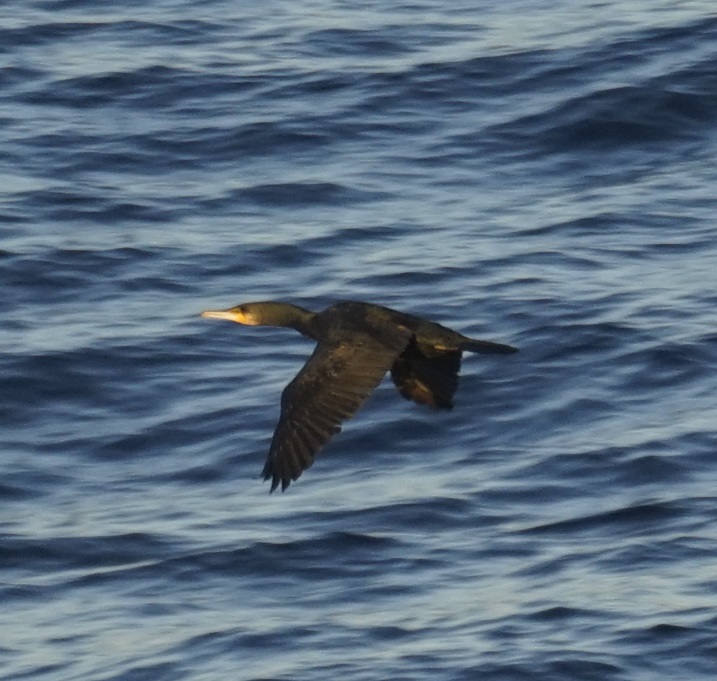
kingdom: Animalia
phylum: Chordata
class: Aves
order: Suliformes
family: Phalacrocoracidae
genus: Phalacrocorax
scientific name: Phalacrocorax carbo
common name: Great cormorant
